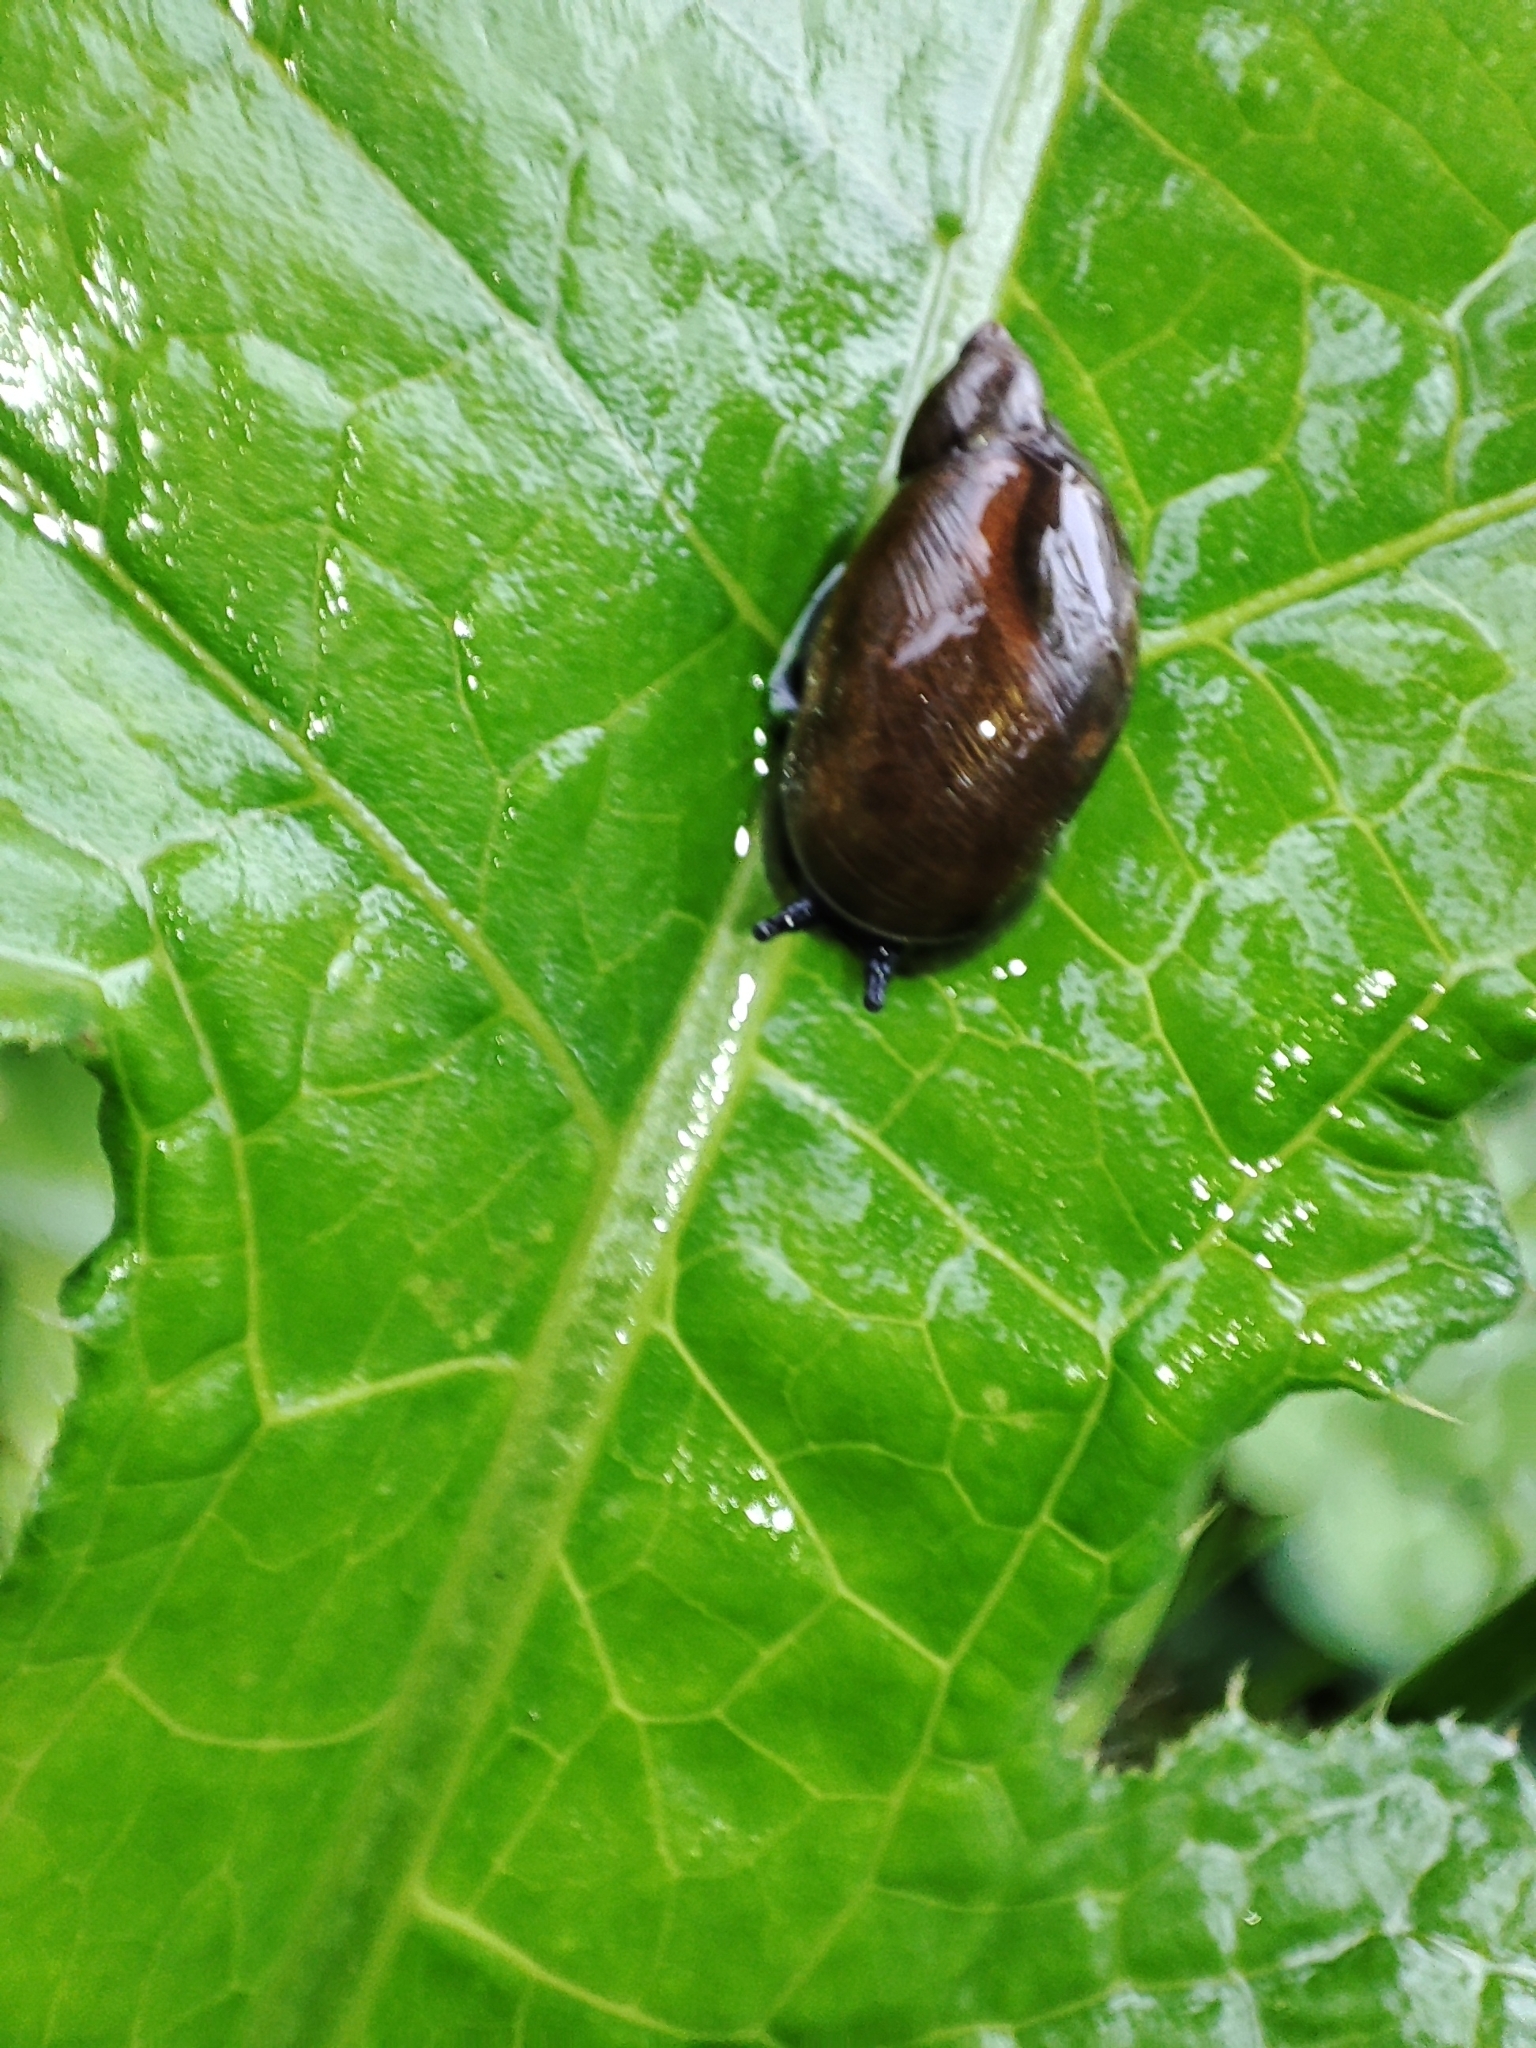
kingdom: Animalia
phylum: Mollusca
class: Gastropoda
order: Stylommatophora
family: Succineidae
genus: Succinea
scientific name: Succinea putris
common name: European ambersnail
